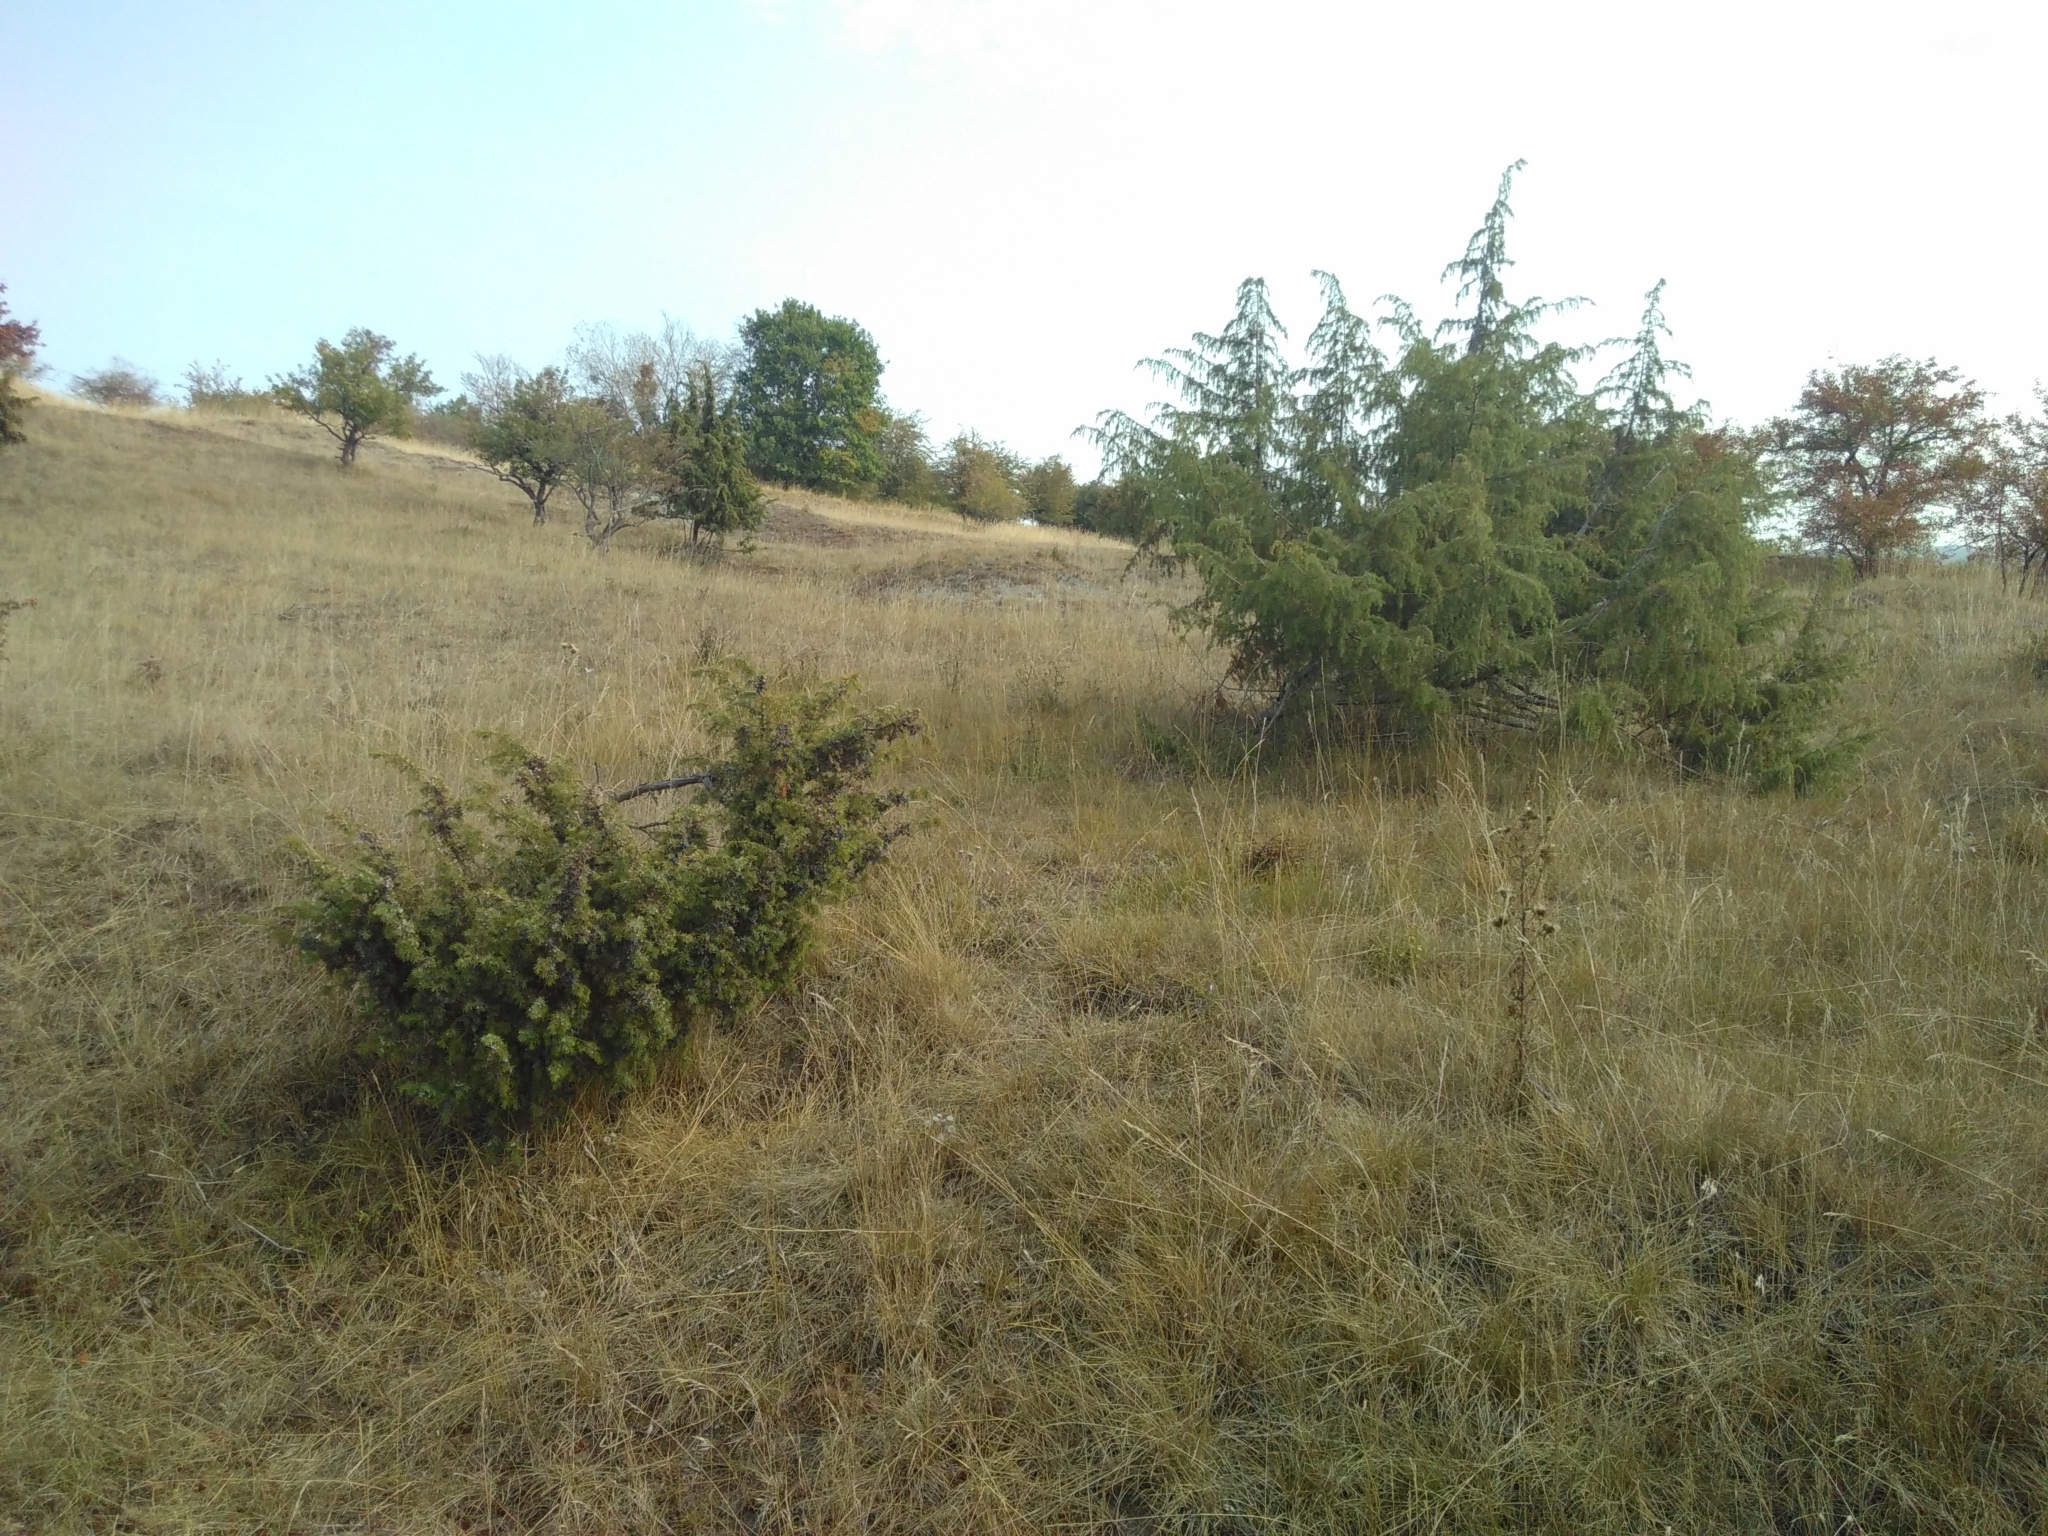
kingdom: Plantae
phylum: Tracheophyta
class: Pinopsida
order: Pinales
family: Cupressaceae
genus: Juniperus
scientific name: Juniperus communis
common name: Common juniper
